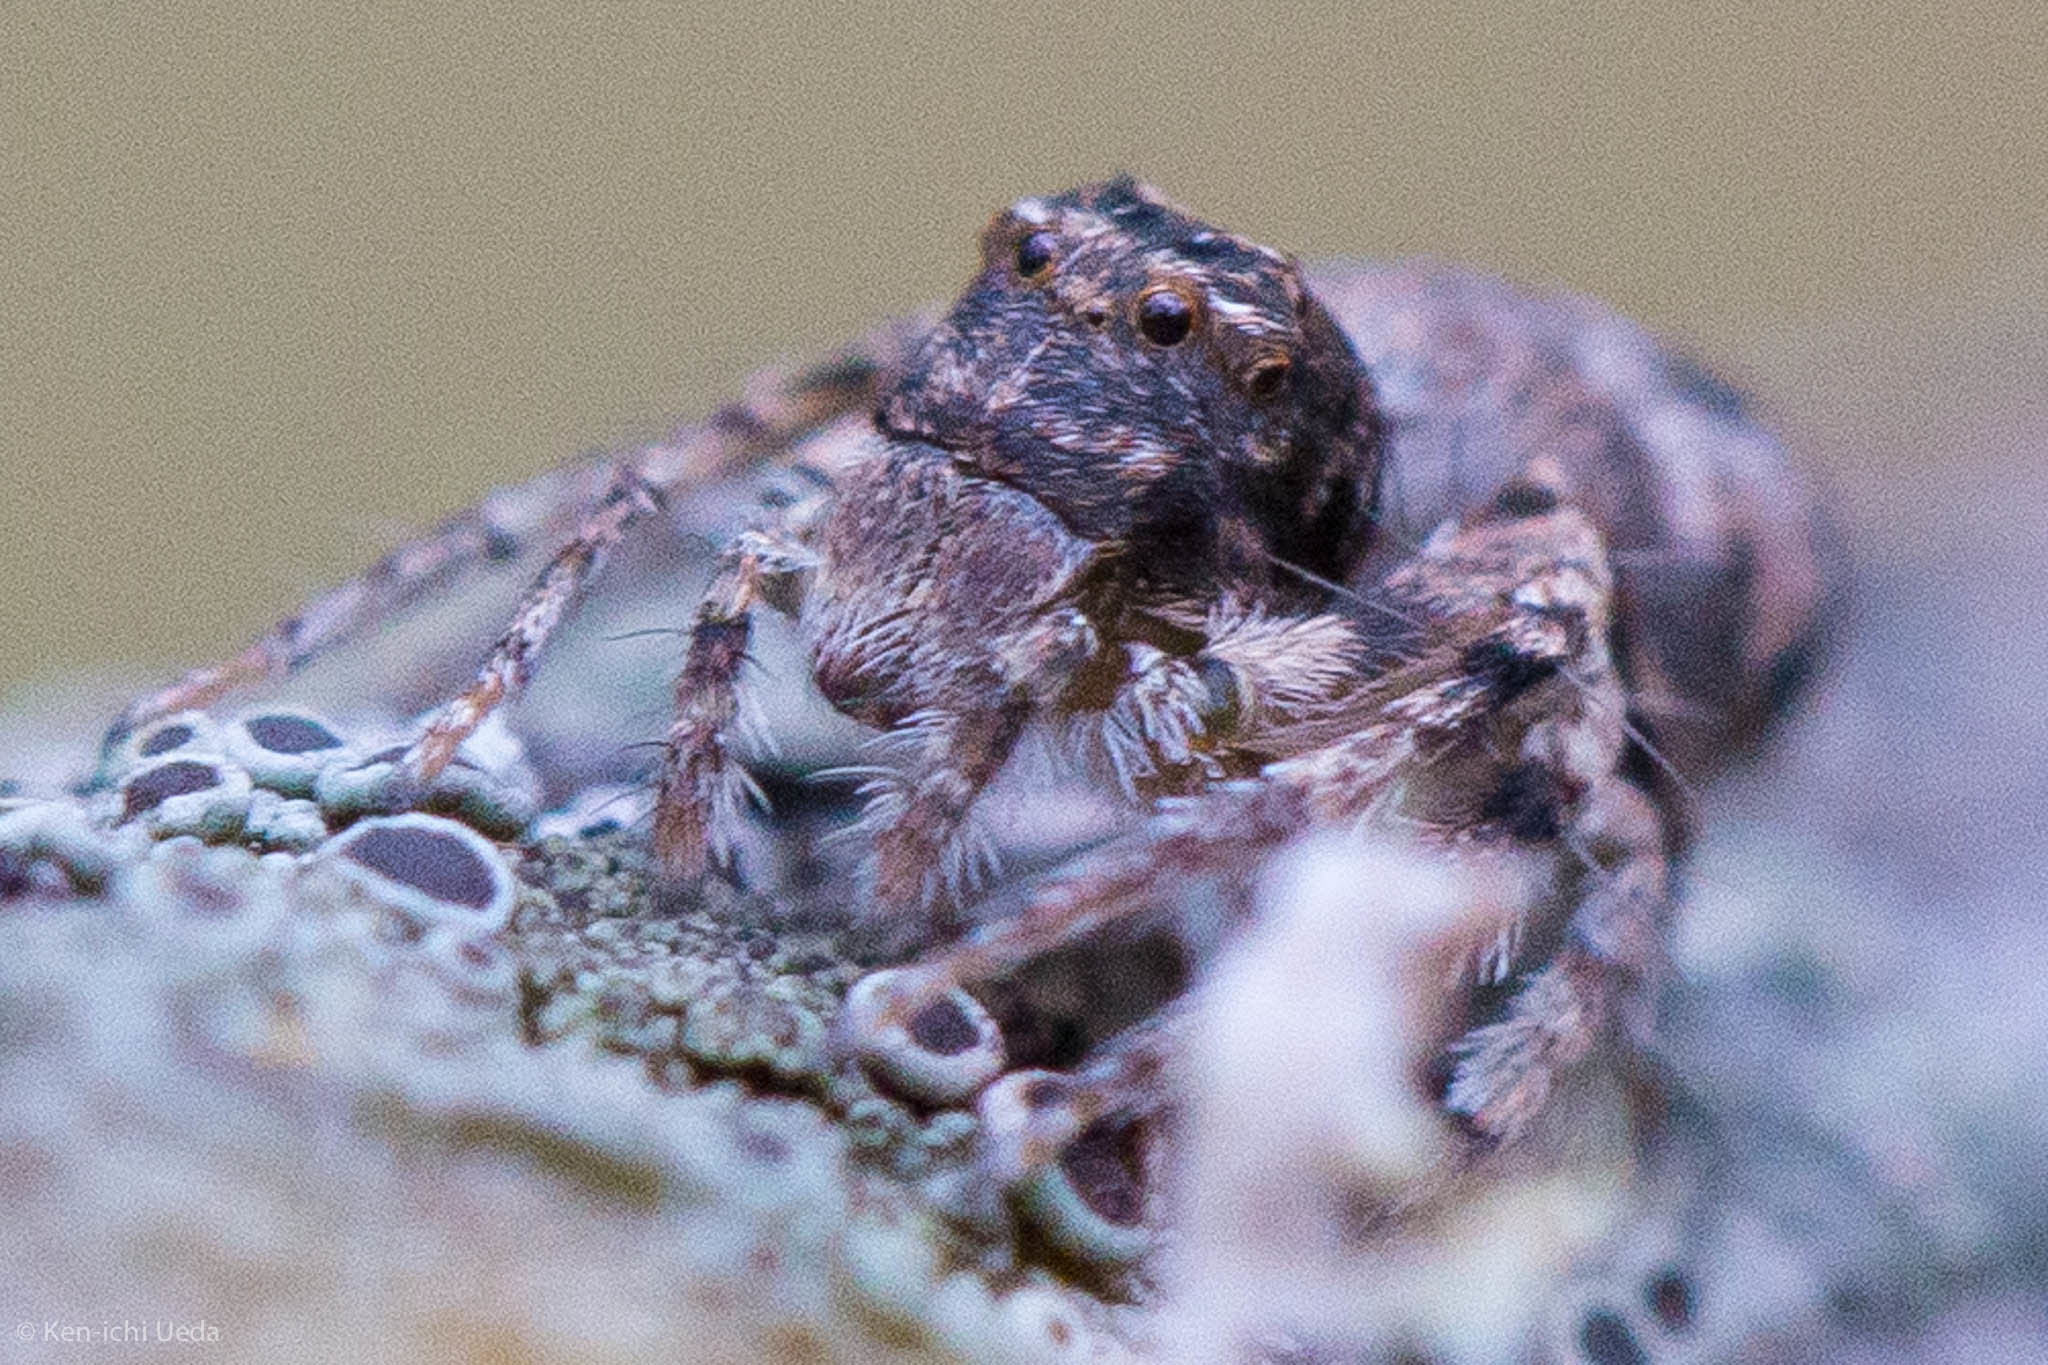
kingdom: Animalia
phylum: Arthropoda
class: Arachnida
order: Araneae
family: Oxyopidae
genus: Hamataliwa
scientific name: Hamataliwa grisea
